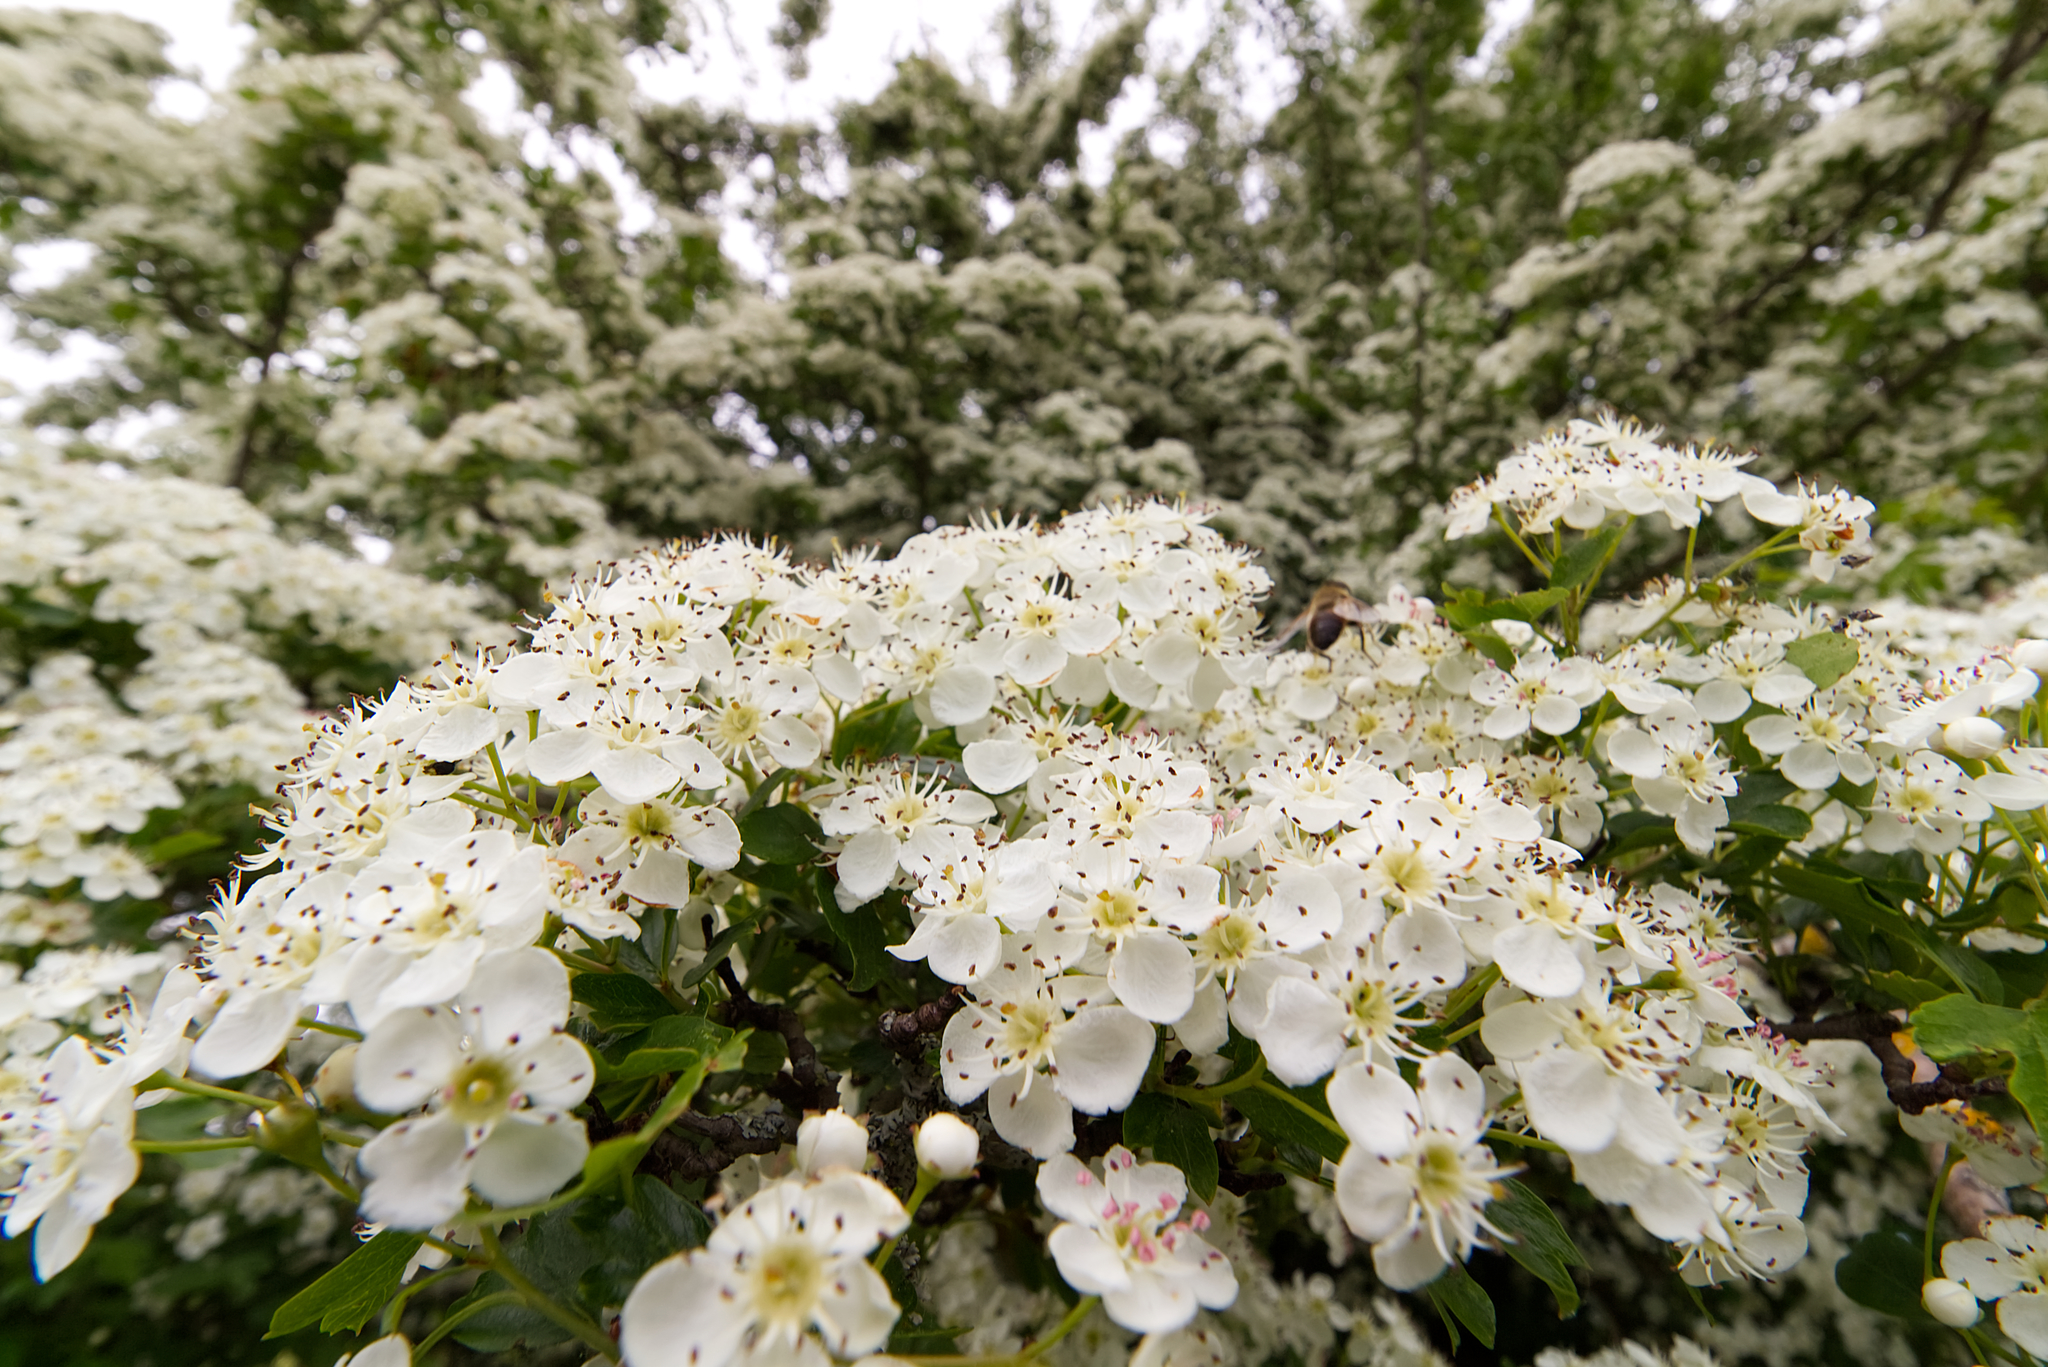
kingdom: Plantae
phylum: Tracheophyta
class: Magnoliopsida
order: Rosales
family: Rosaceae
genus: Crataegus
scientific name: Crataegus monogyna
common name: Hawthorn
